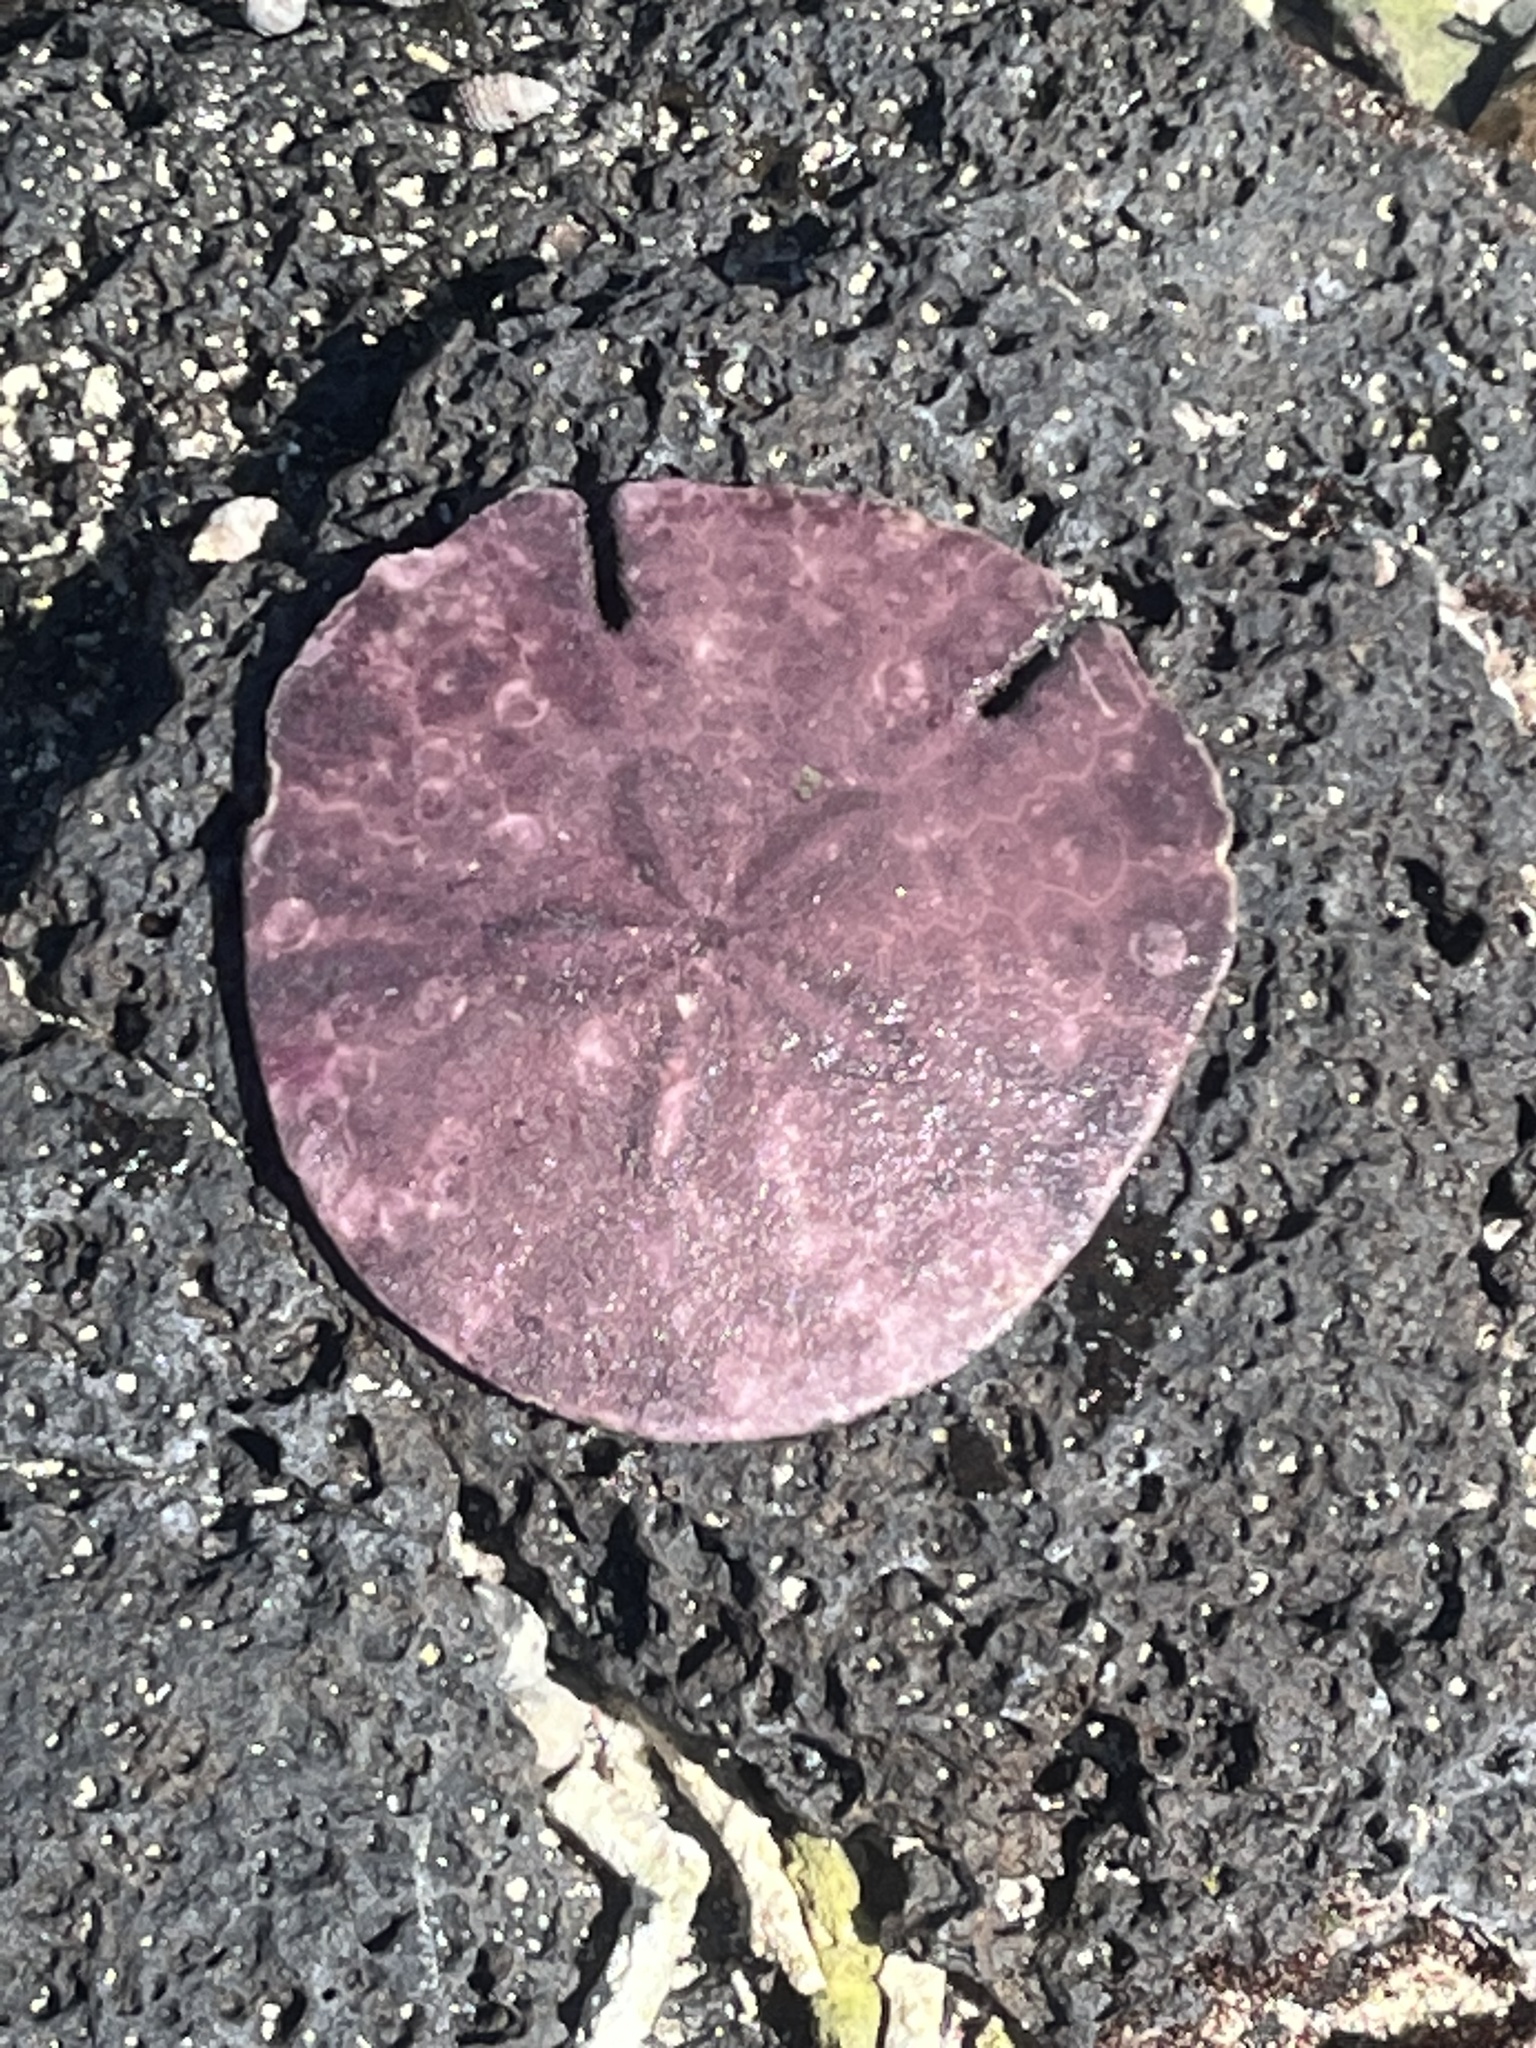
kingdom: Animalia
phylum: Echinodermata
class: Echinoidea
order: Echinolampadacea
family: Astriclypeidae
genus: Sculpsitechinus
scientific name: Sculpsitechinus auritus
